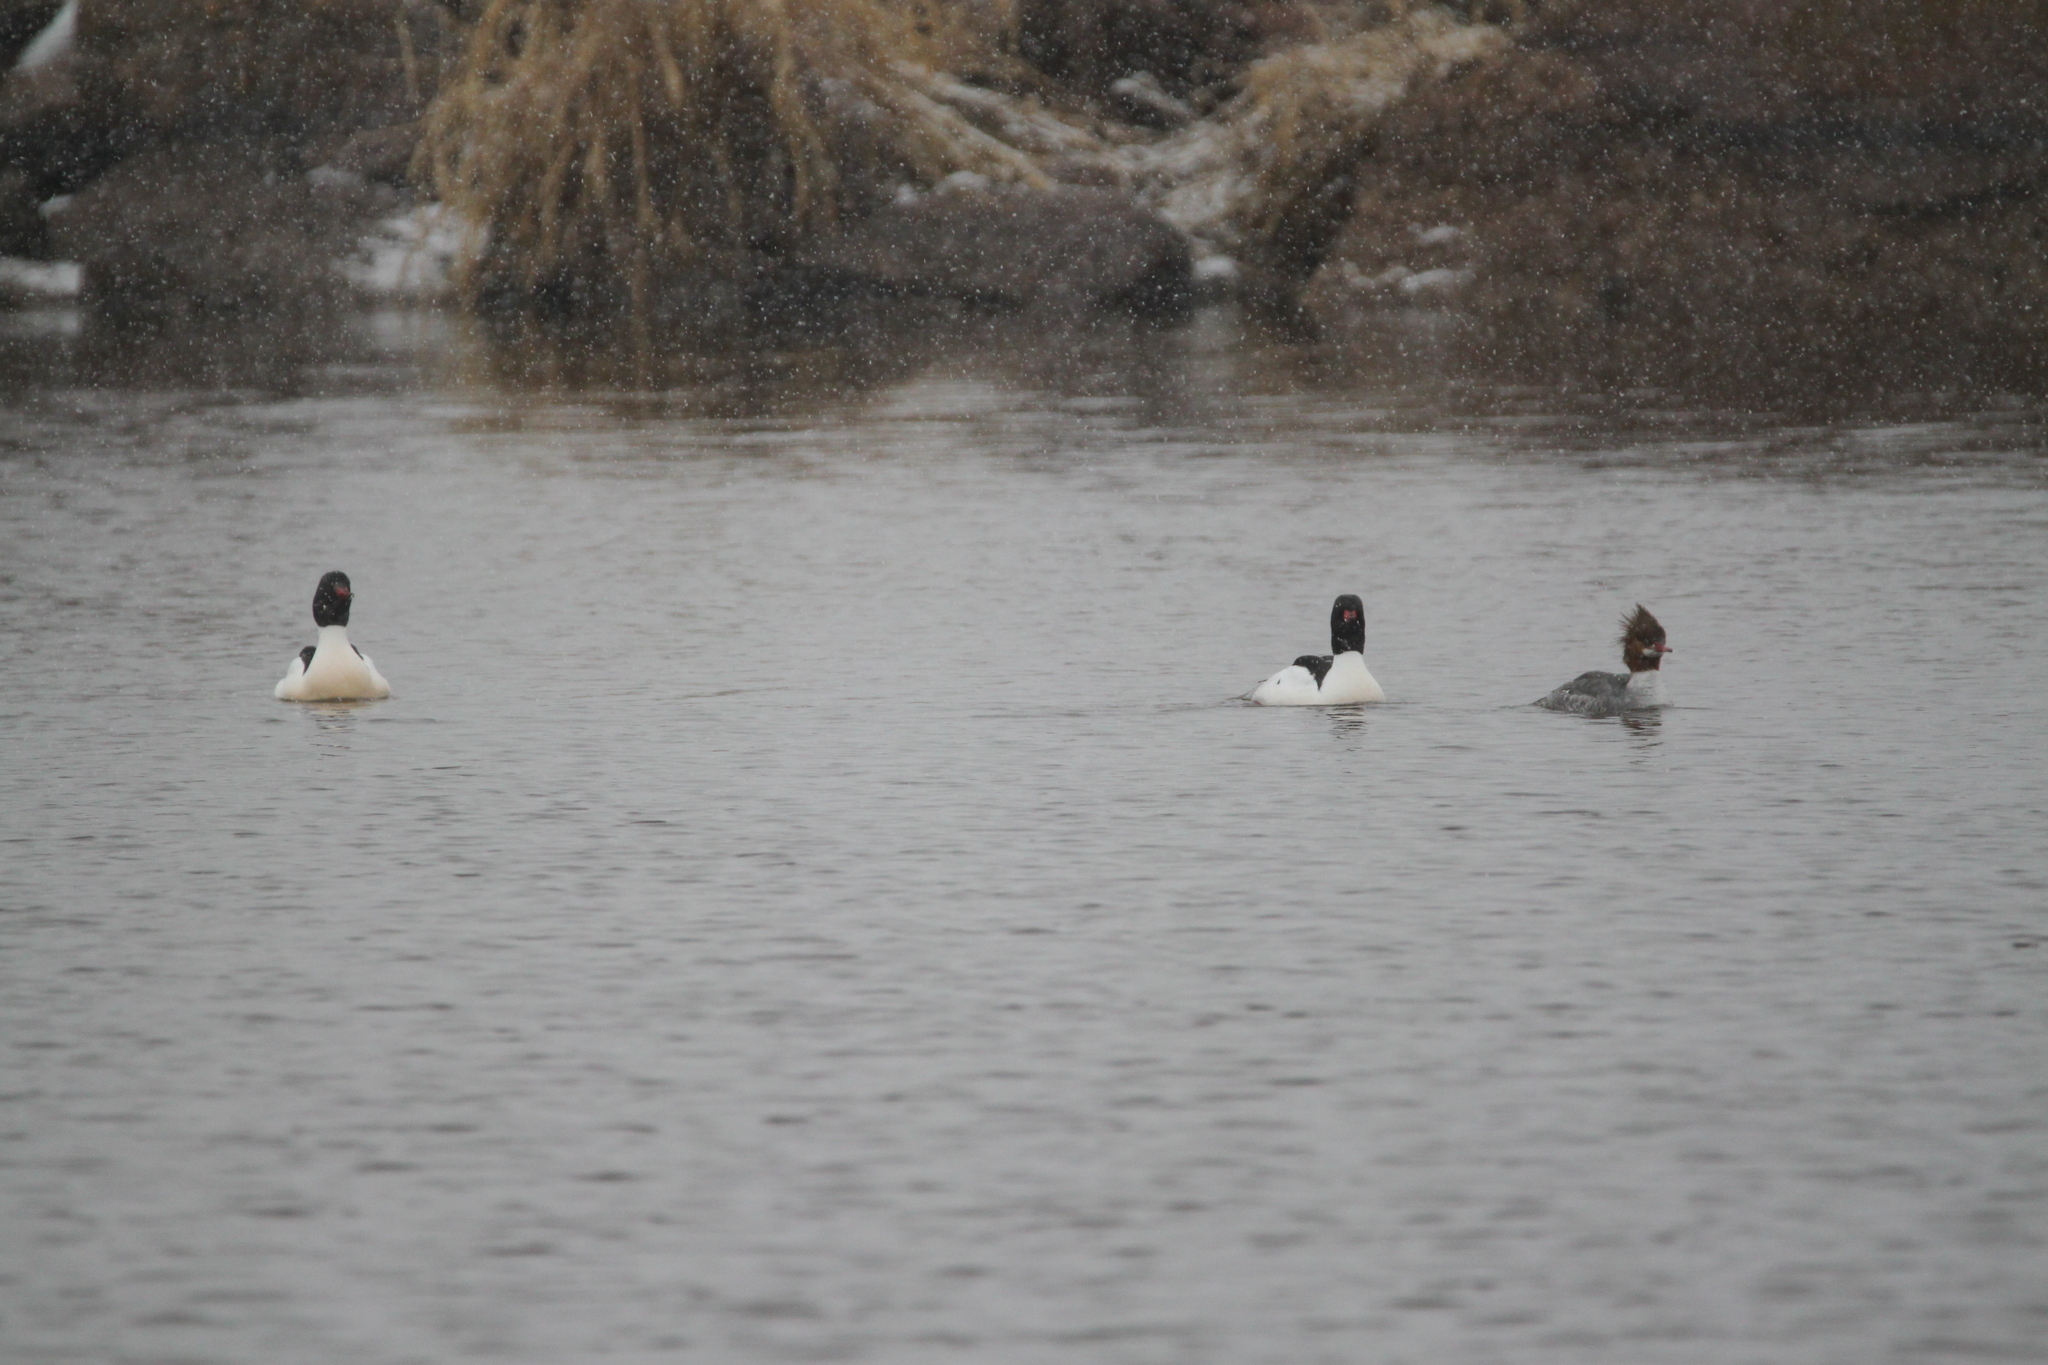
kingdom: Animalia
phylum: Chordata
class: Aves
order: Anseriformes
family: Anatidae
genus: Mergus
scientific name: Mergus merganser
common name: Common merganser
